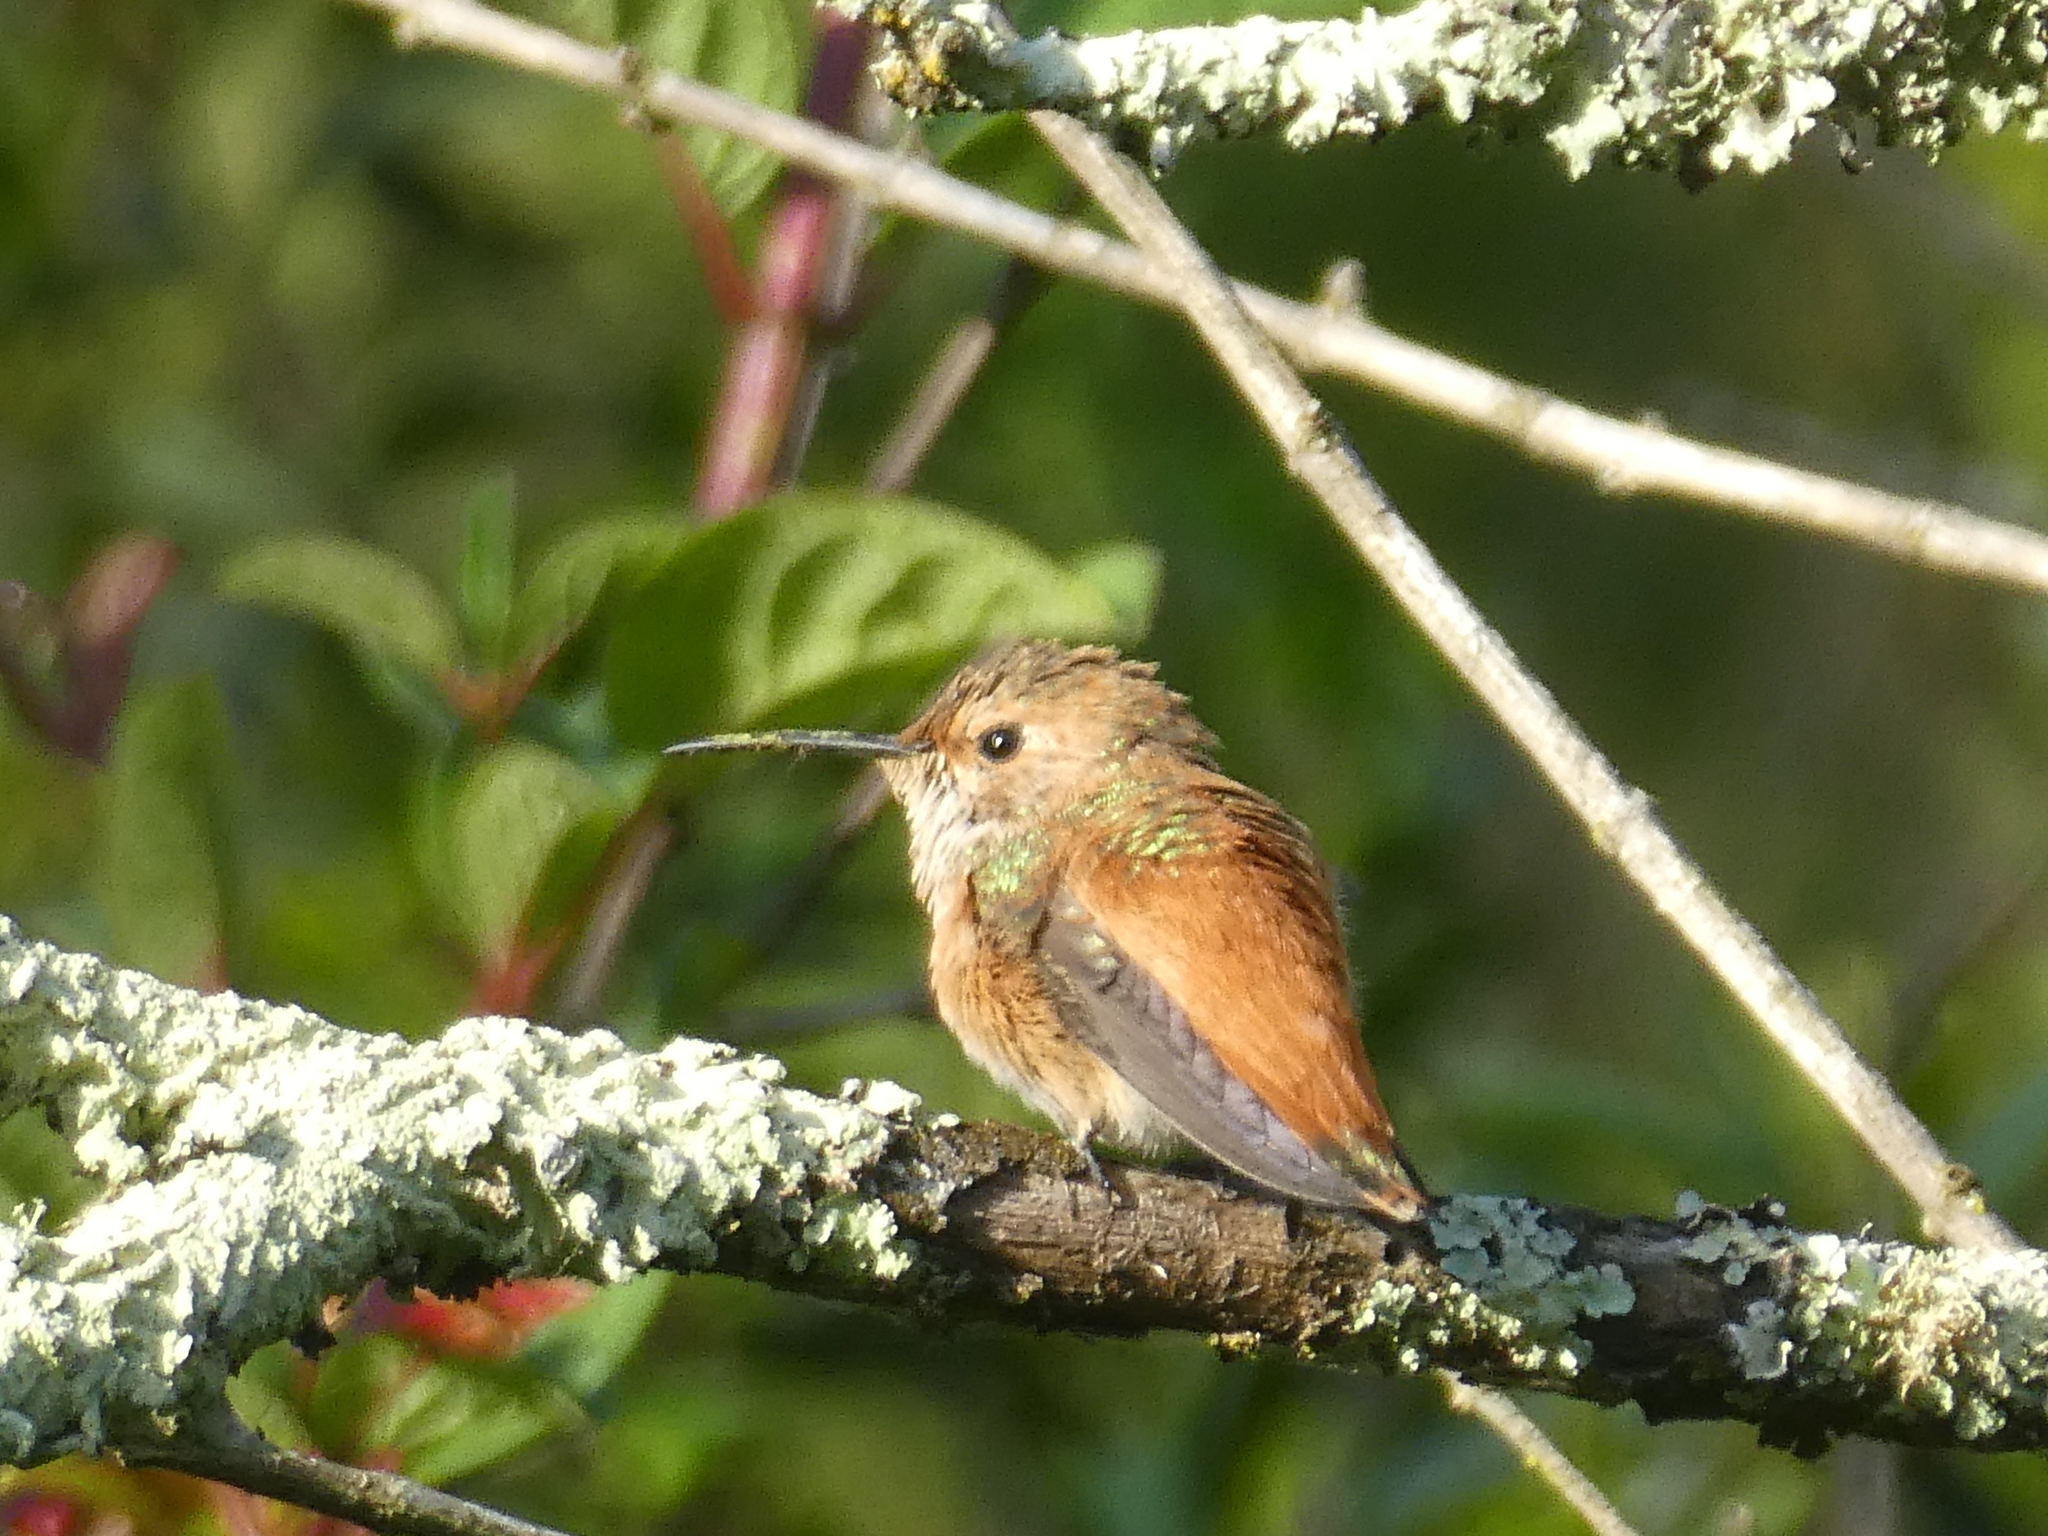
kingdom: Animalia
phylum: Chordata
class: Aves
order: Apodiformes
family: Trochilidae
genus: Selasphorus
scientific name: Selasphorus sasin
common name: Allen's hummingbird
